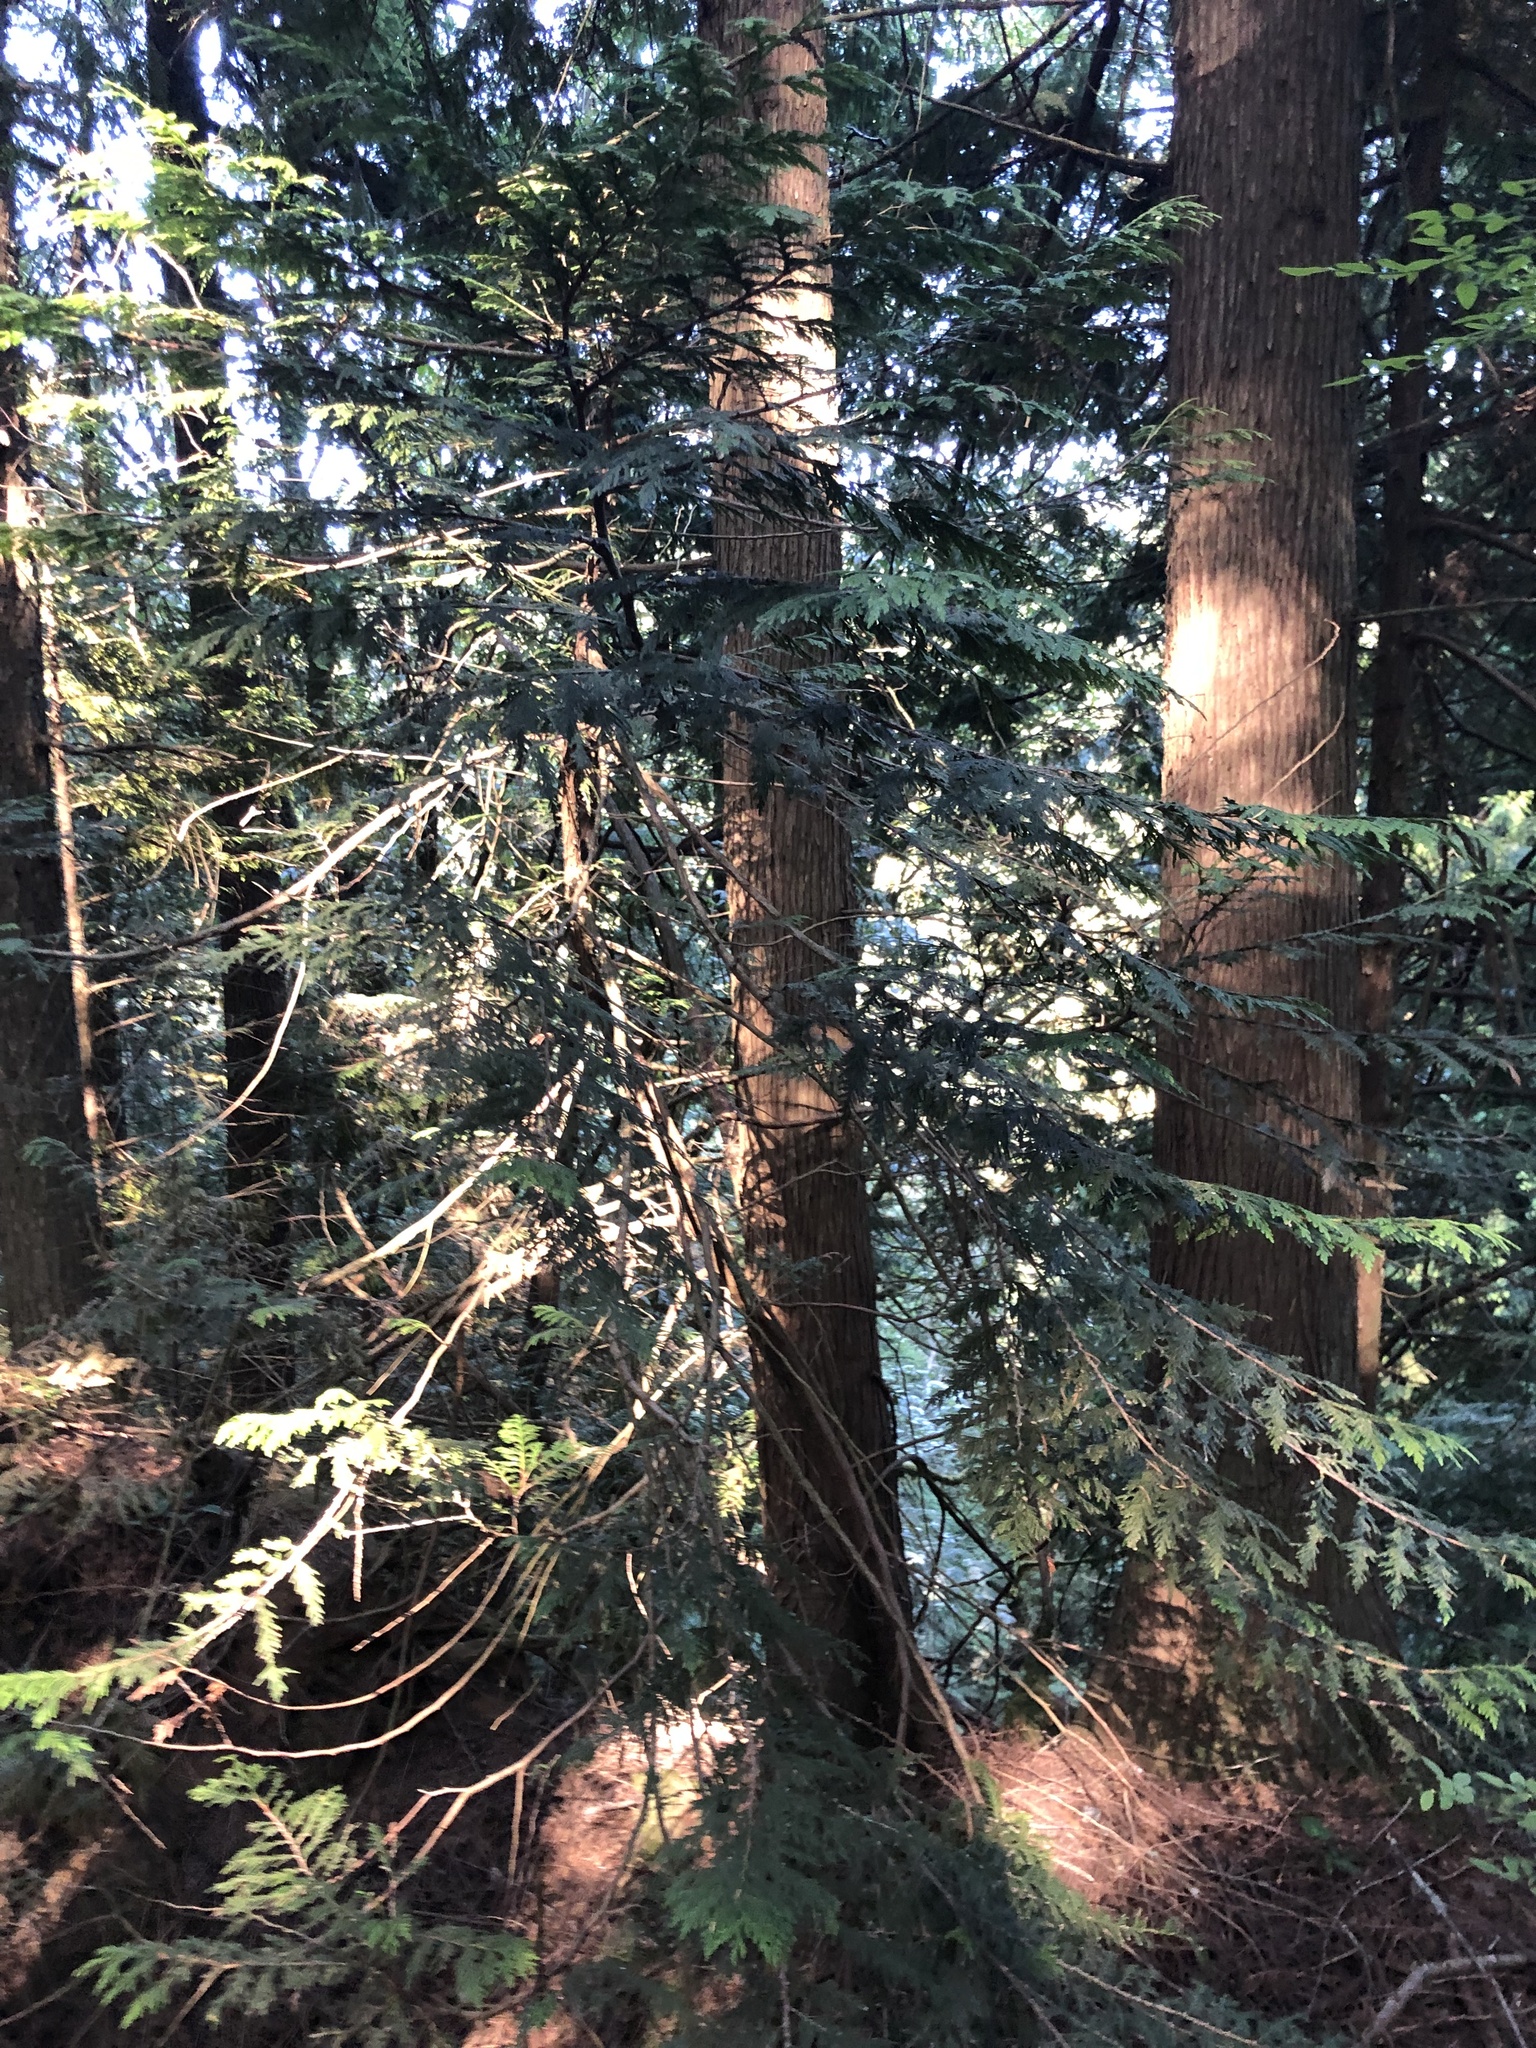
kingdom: Plantae
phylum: Tracheophyta
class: Pinopsida
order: Pinales
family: Cupressaceae
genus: Thuja
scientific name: Thuja plicata
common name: Western red-cedar
